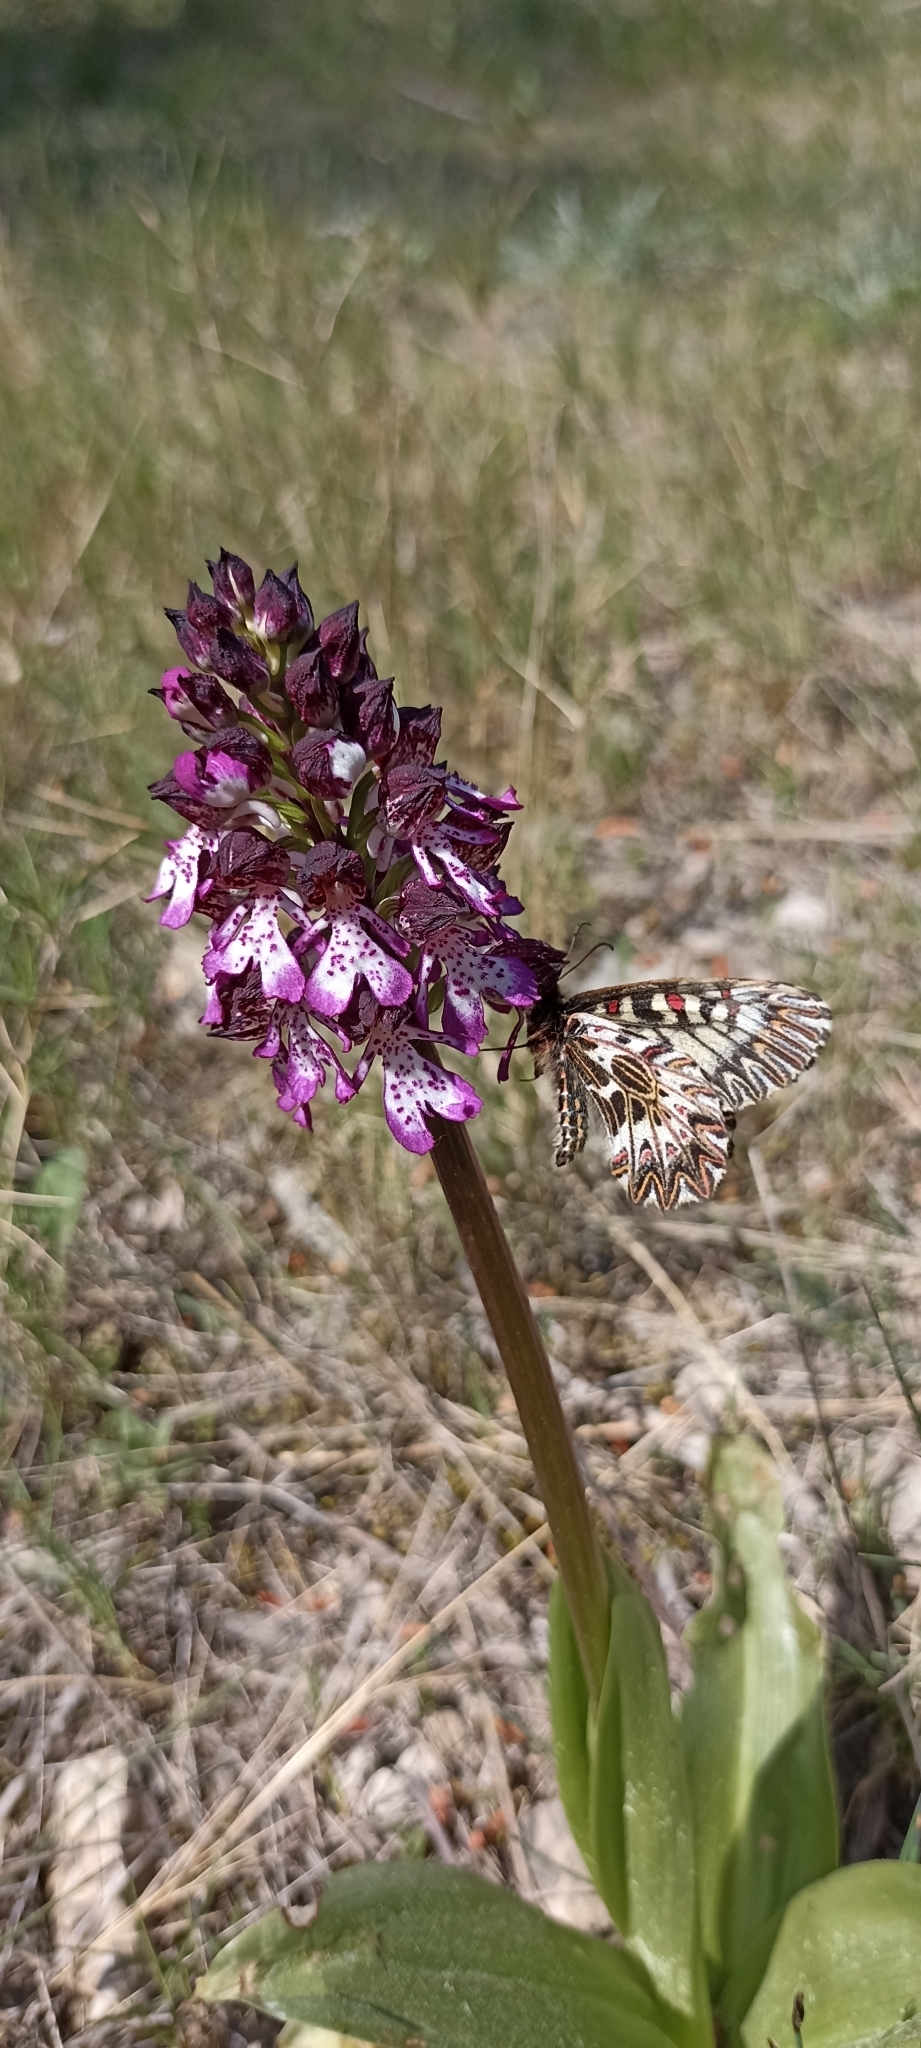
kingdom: Animalia
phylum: Arthropoda
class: Insecta
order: Lepidoptera
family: Papilionidae
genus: Zerynthia
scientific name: Zerynthia polyxena
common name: Southern festoon
